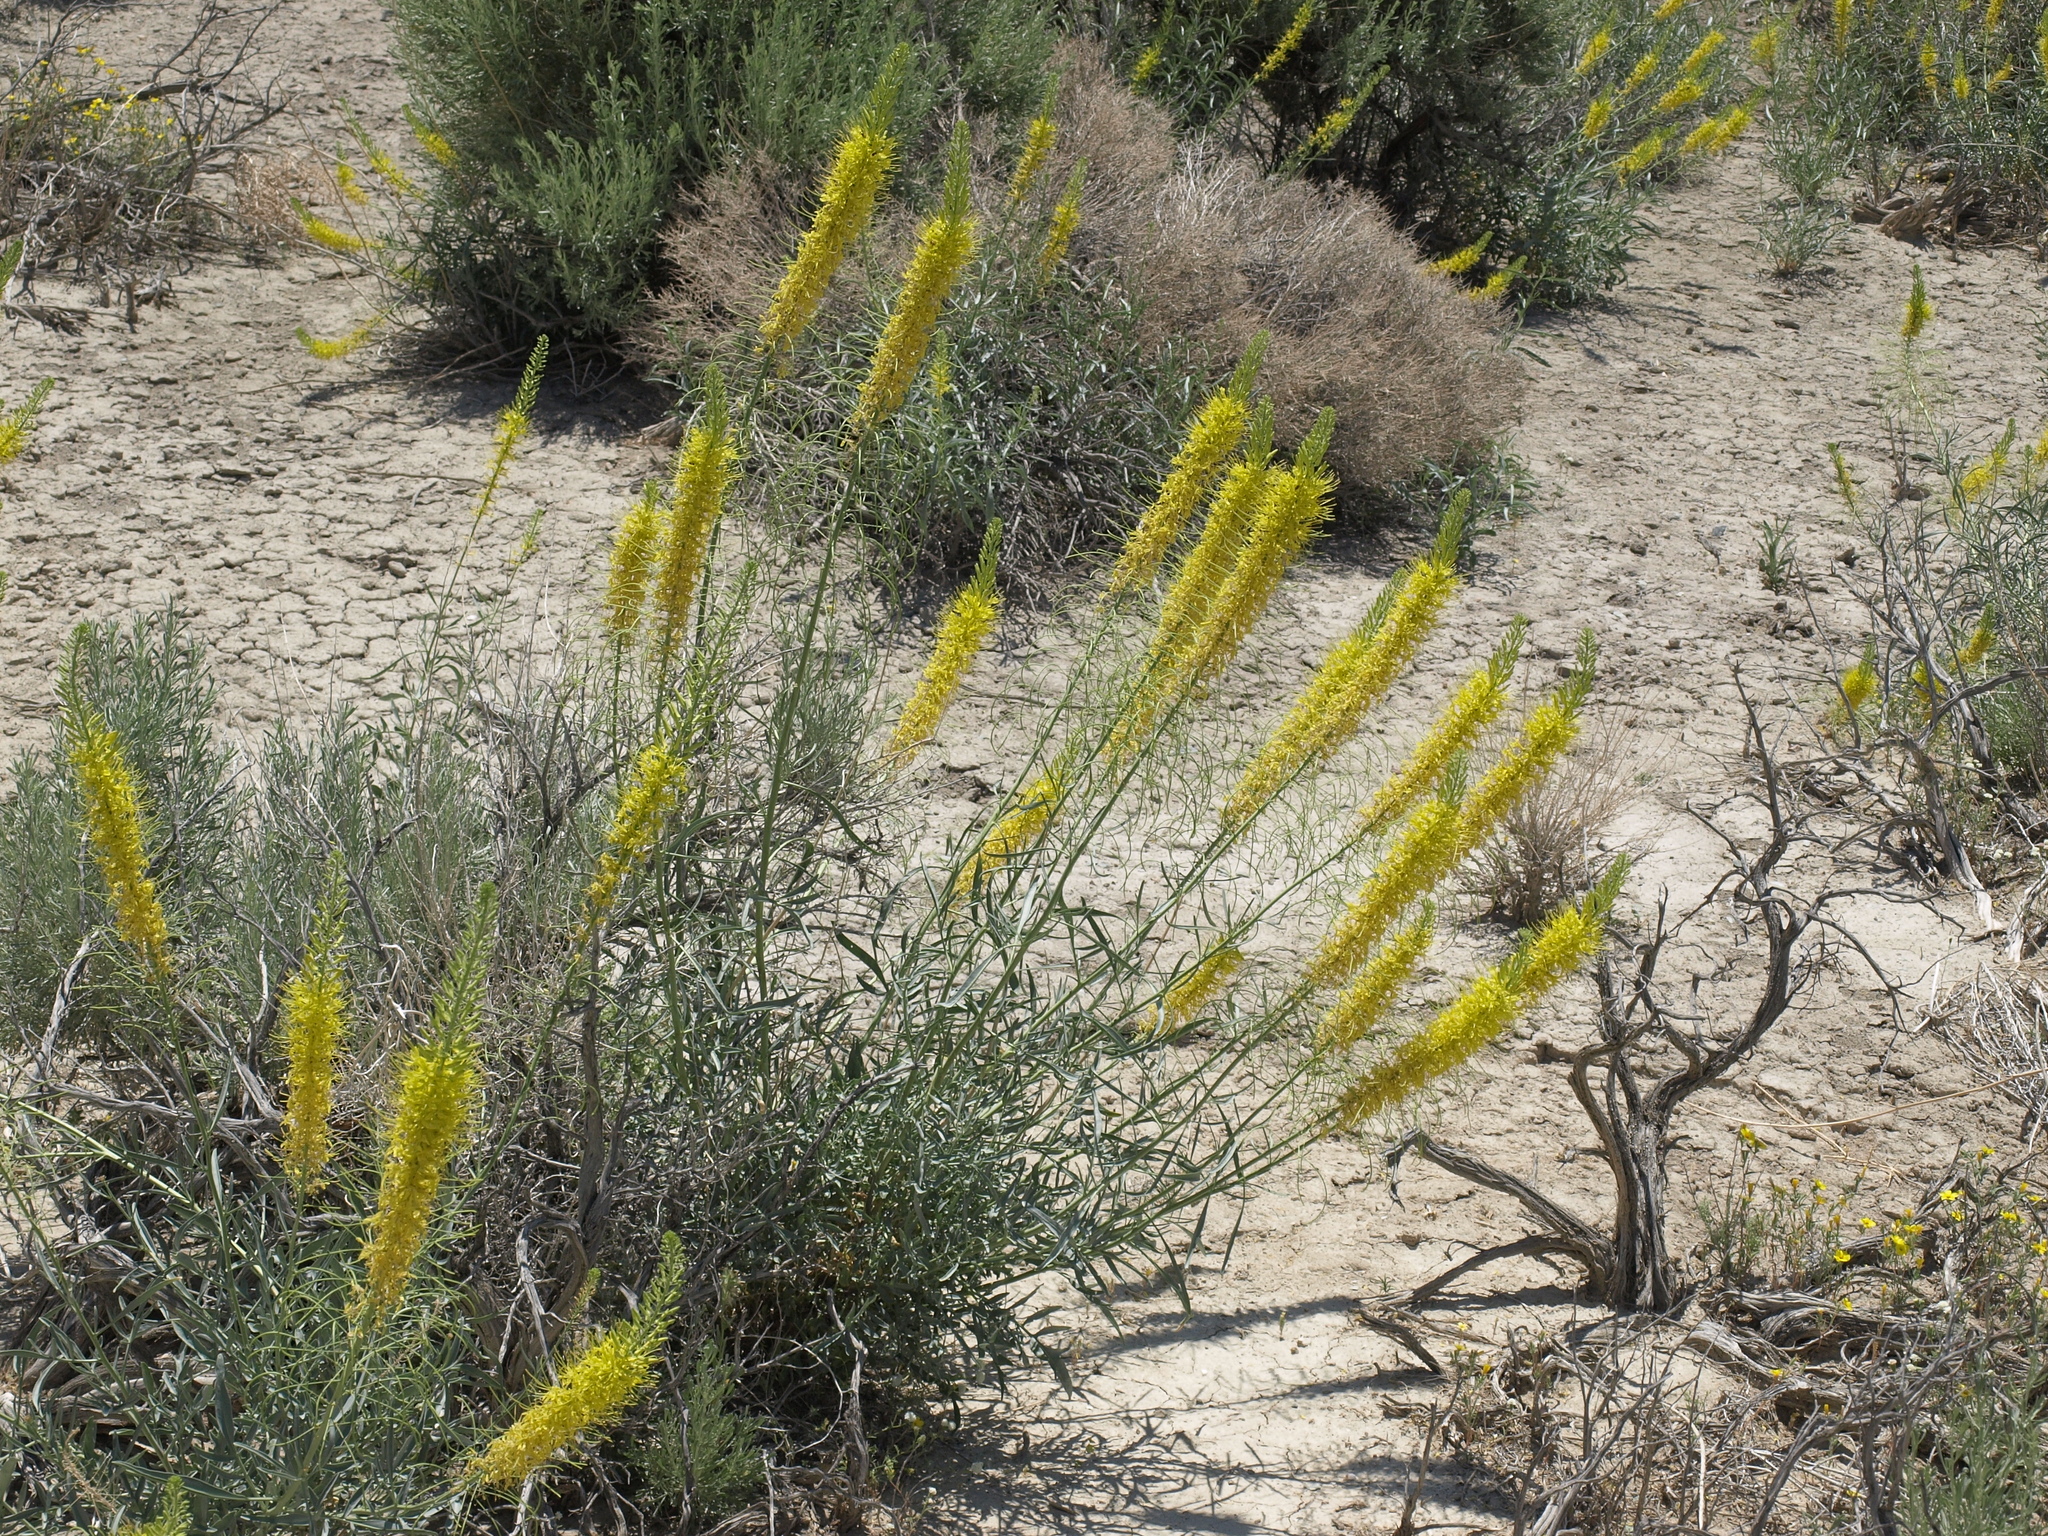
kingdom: Plantae
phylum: Tracheophyta
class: Magnoliopsida
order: Brassicales
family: Brassicaceae
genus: Stanleya
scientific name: Stanleya pinnata
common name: Prince's-plume
